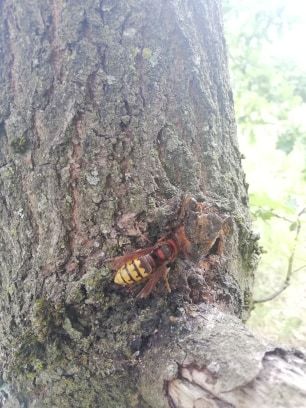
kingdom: Animalia
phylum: Arthropoda
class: Insecta
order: Hymenoptera
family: Vespidae
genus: Vespa
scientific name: Vespa crabro
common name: Hornet
